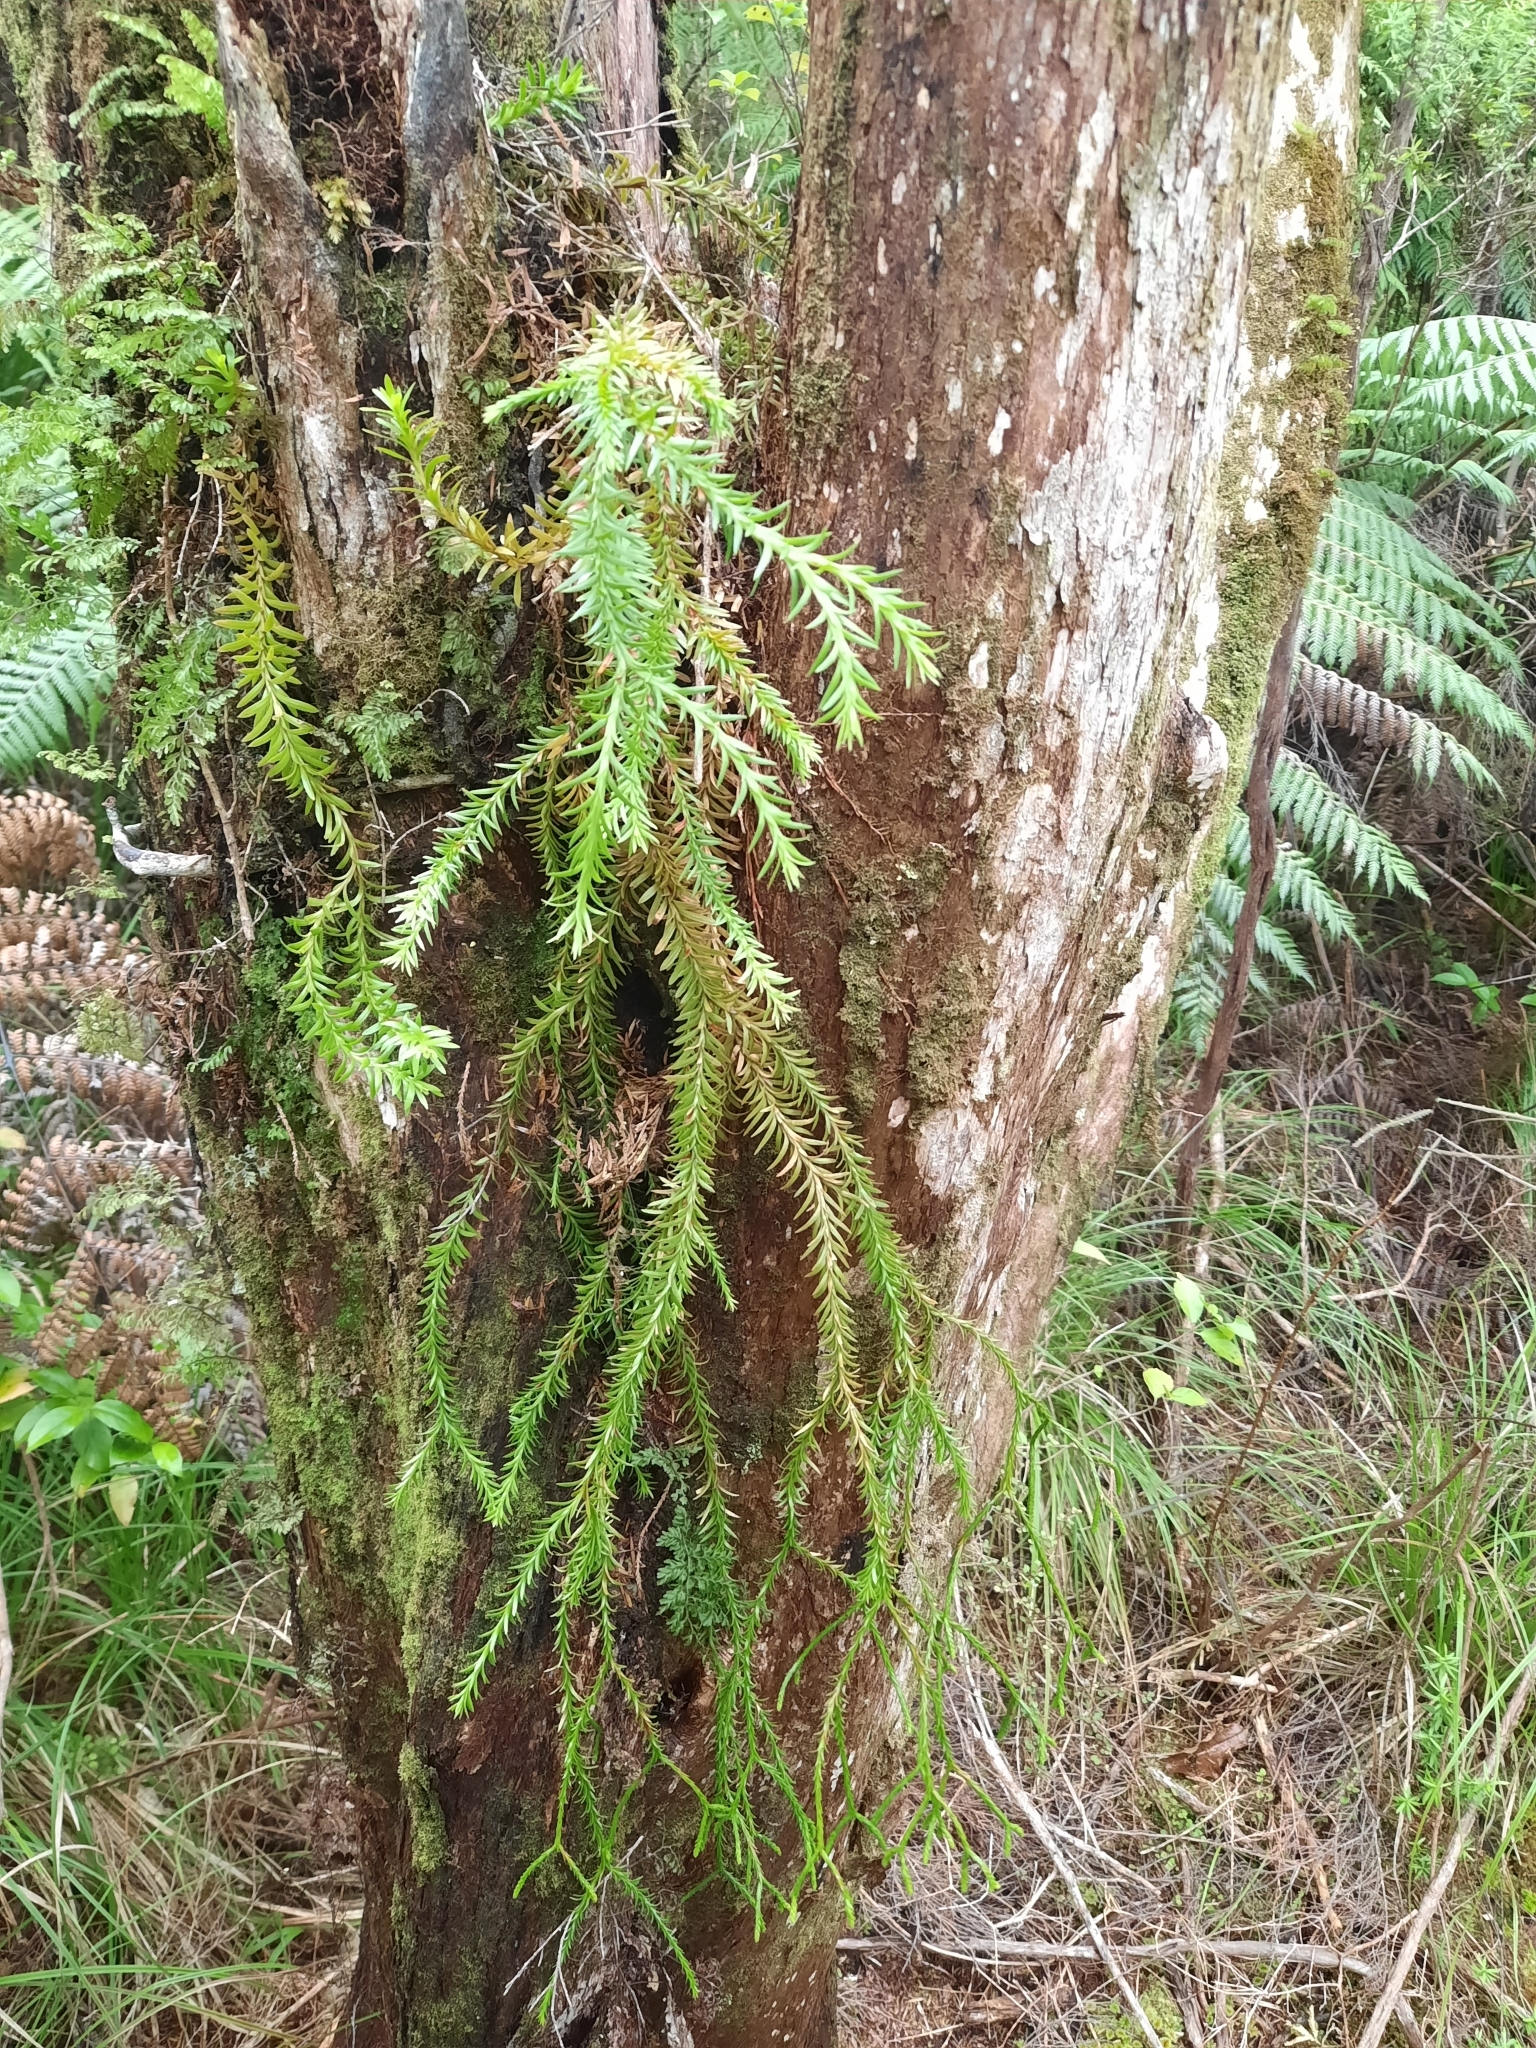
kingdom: Plantae
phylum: Tracheophyta
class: Lycopodiopsida
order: Lycopodiales
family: Lycopodiaceae
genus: Phlegmariurus
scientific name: Phlegmariurus billardierei
